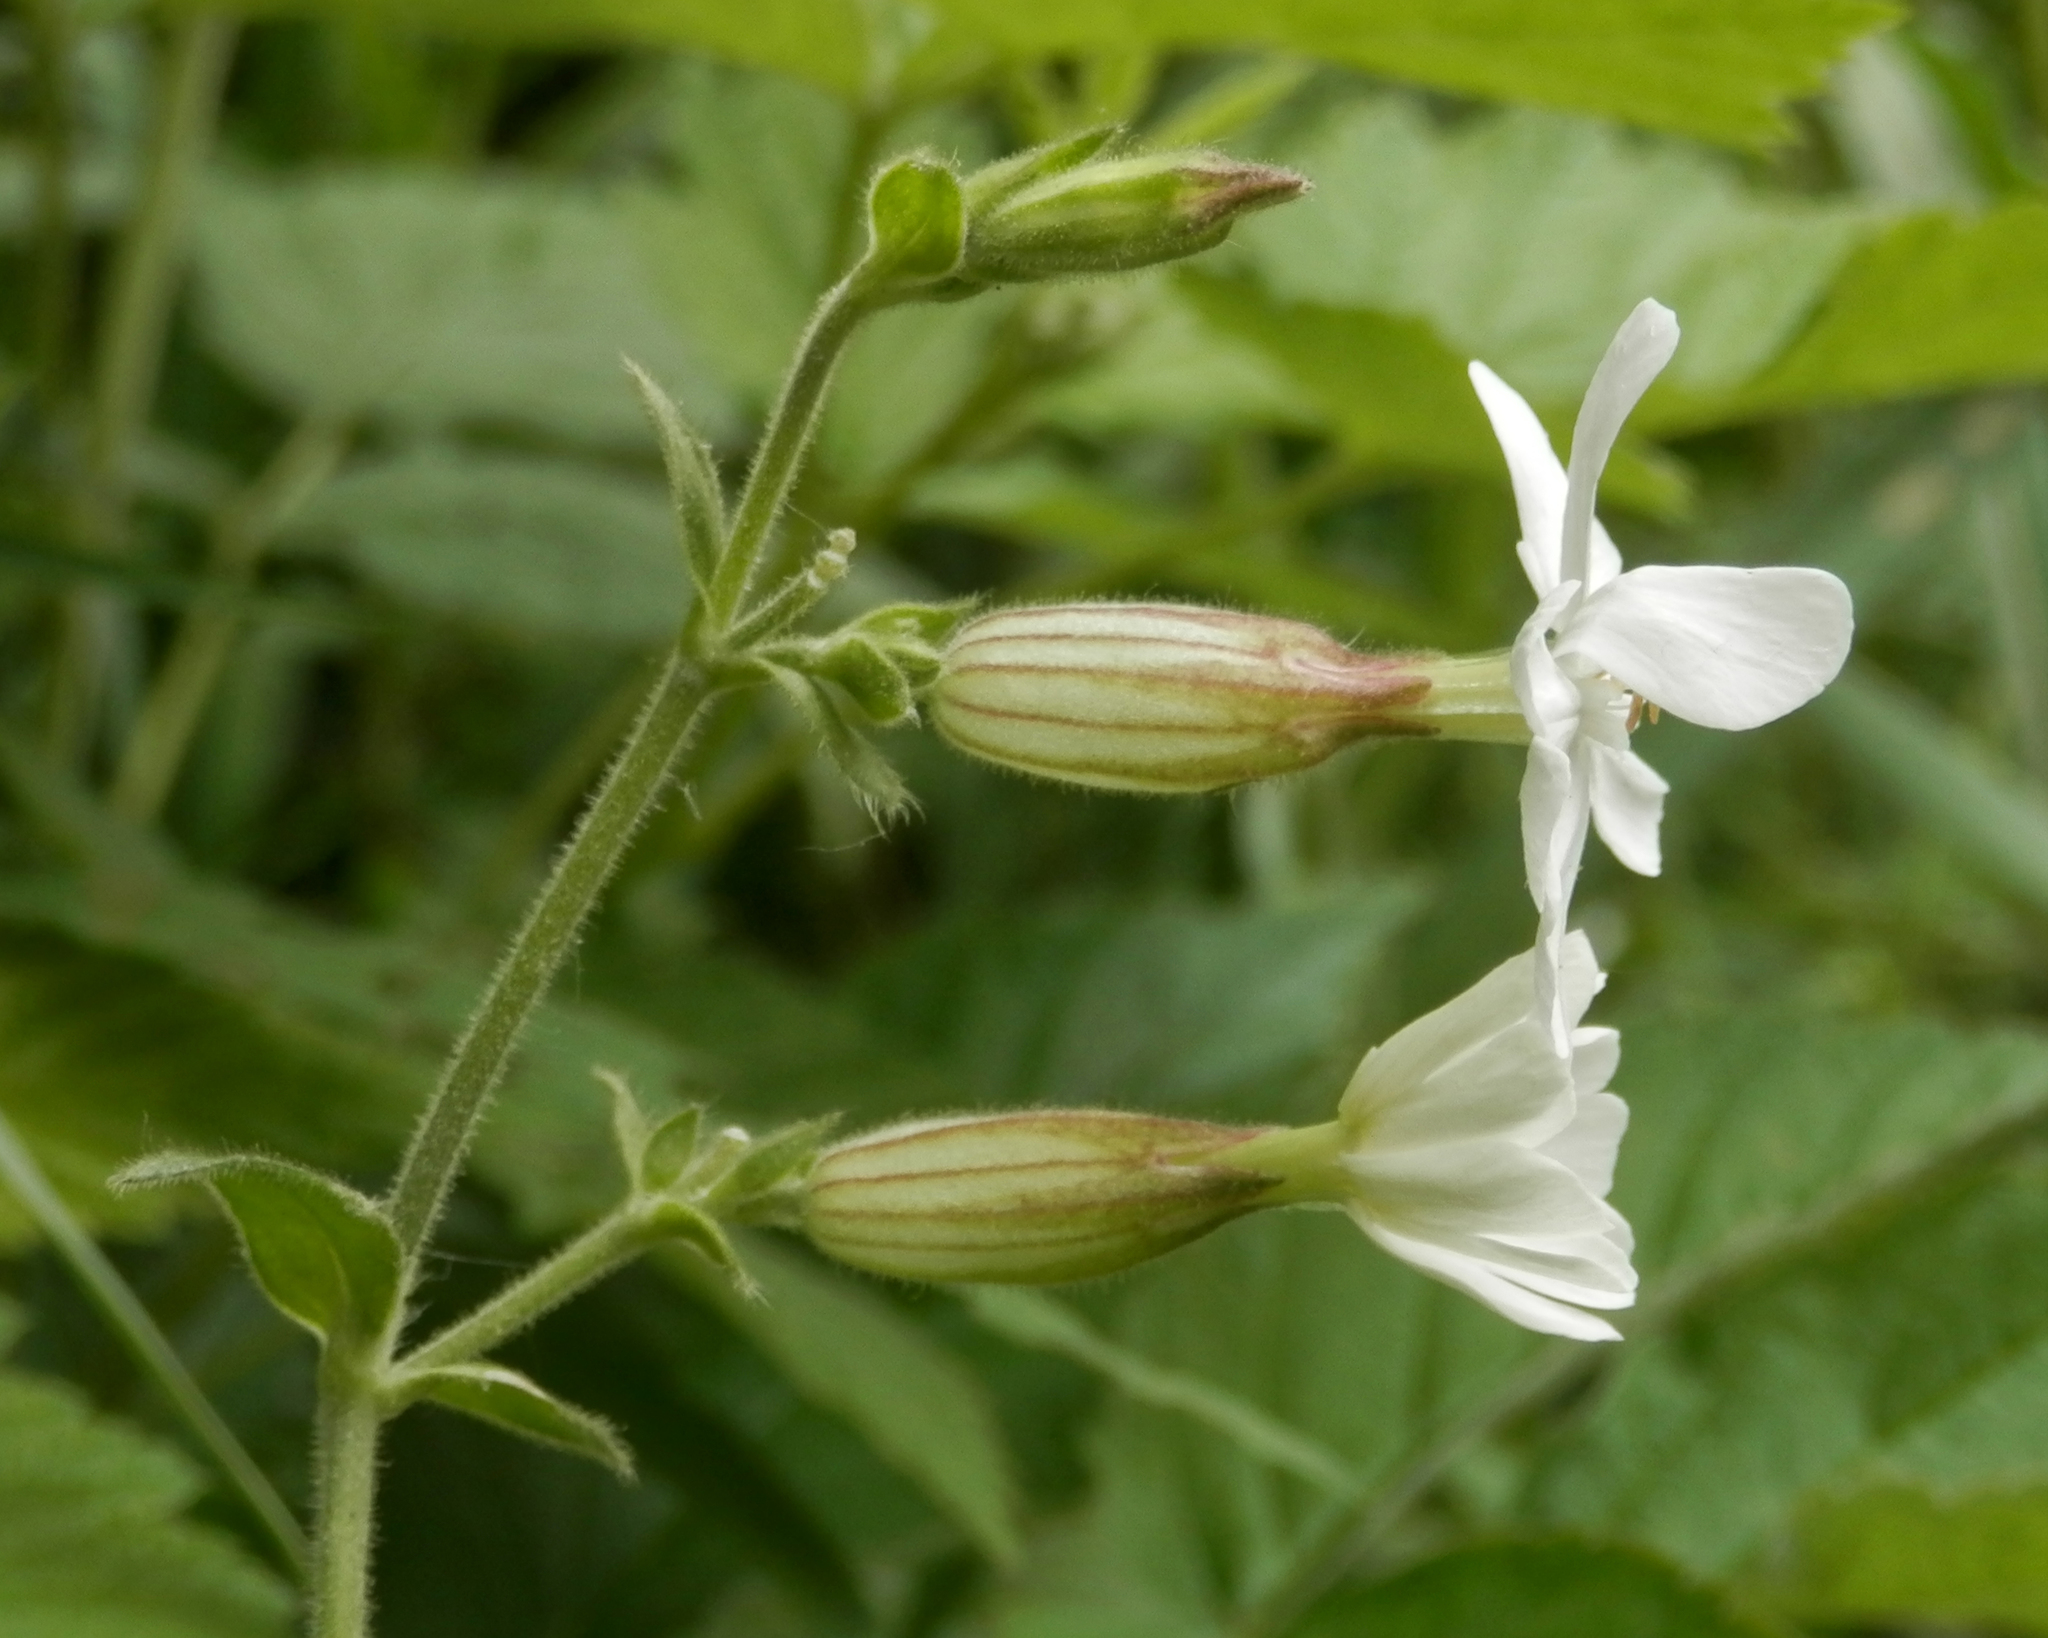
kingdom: Plantae
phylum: Tracheophyta
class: Magnoliopsida
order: Caryophyllales
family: Caryophyllaceae
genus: Silene
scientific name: Silene latifolia
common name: White campion
